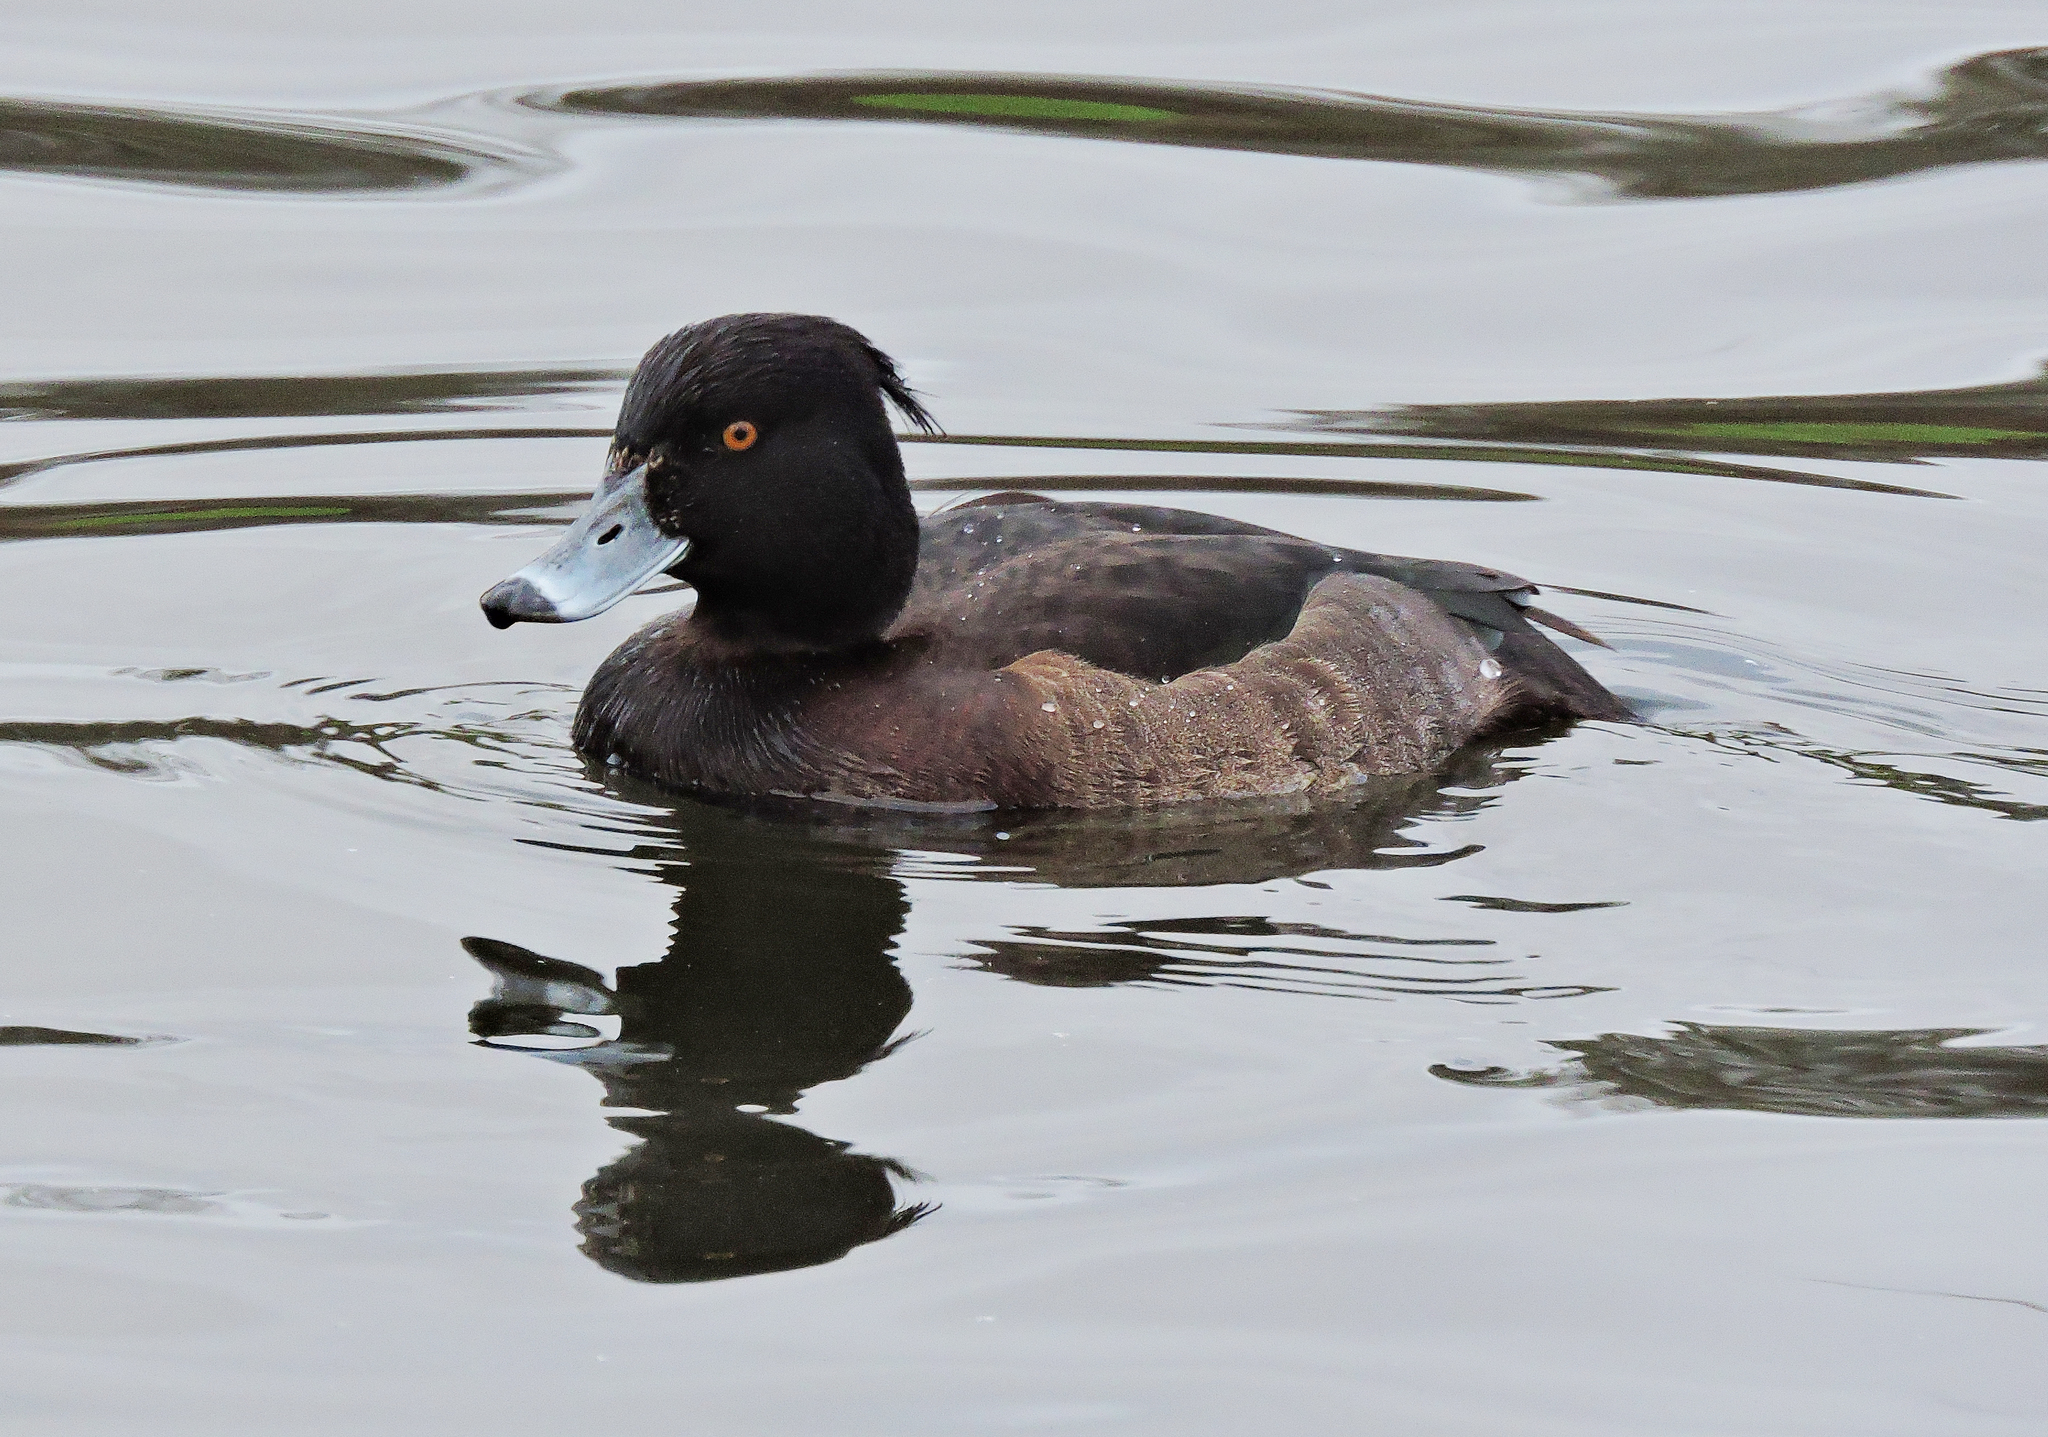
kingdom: Animalia
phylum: Chordata
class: Aves
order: Anseriformes
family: Anatidae
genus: Aythya
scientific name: Aythya fuligula
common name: Tufted duck
